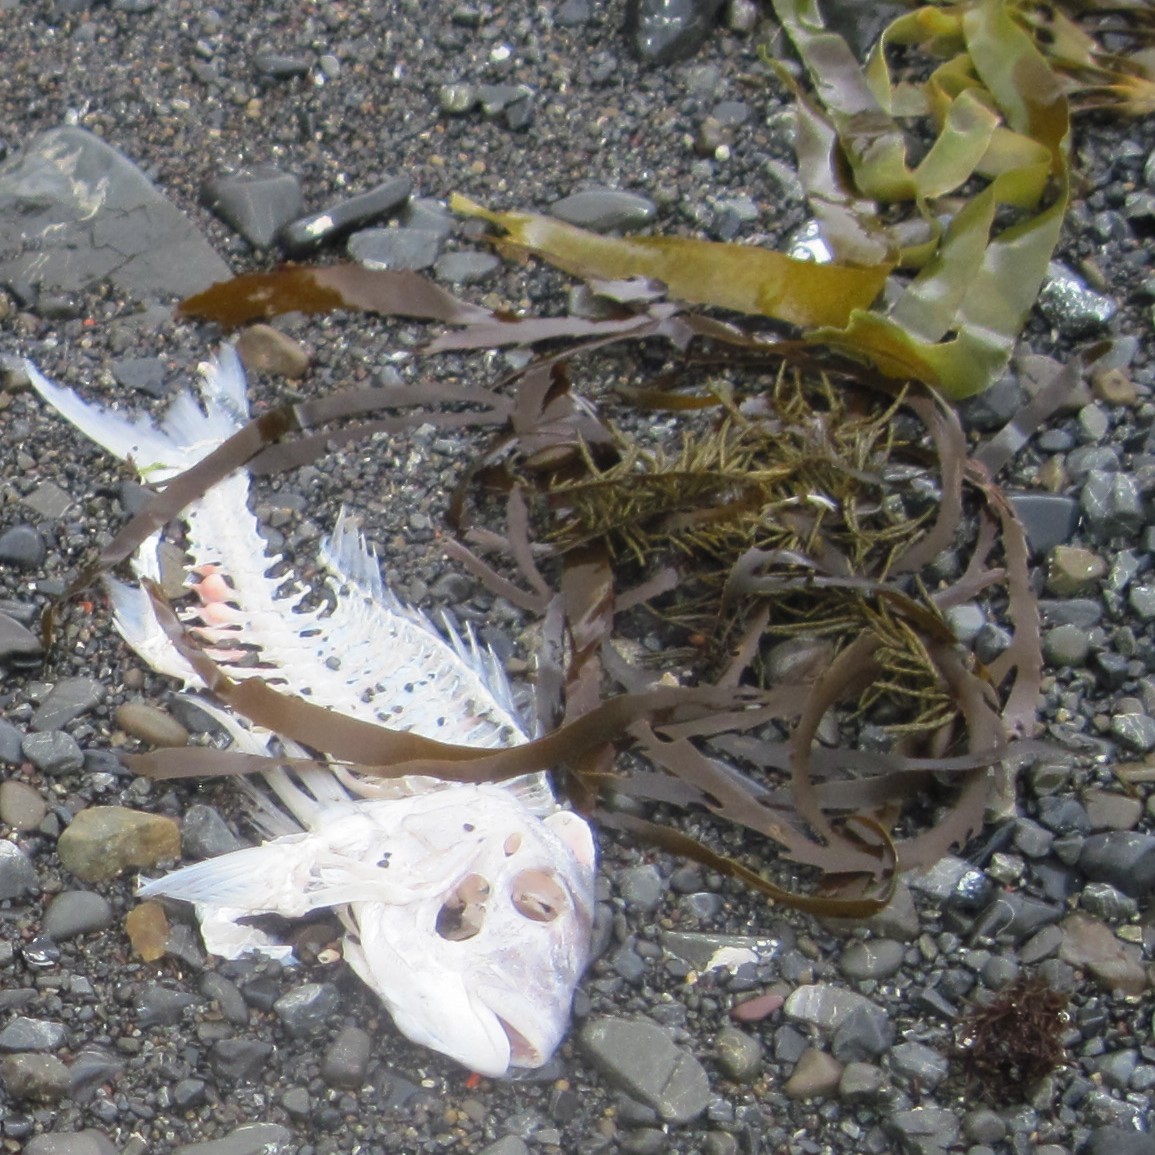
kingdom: Animalia
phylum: Chordata
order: Perciformes
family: Sparidae
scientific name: Sparidae
